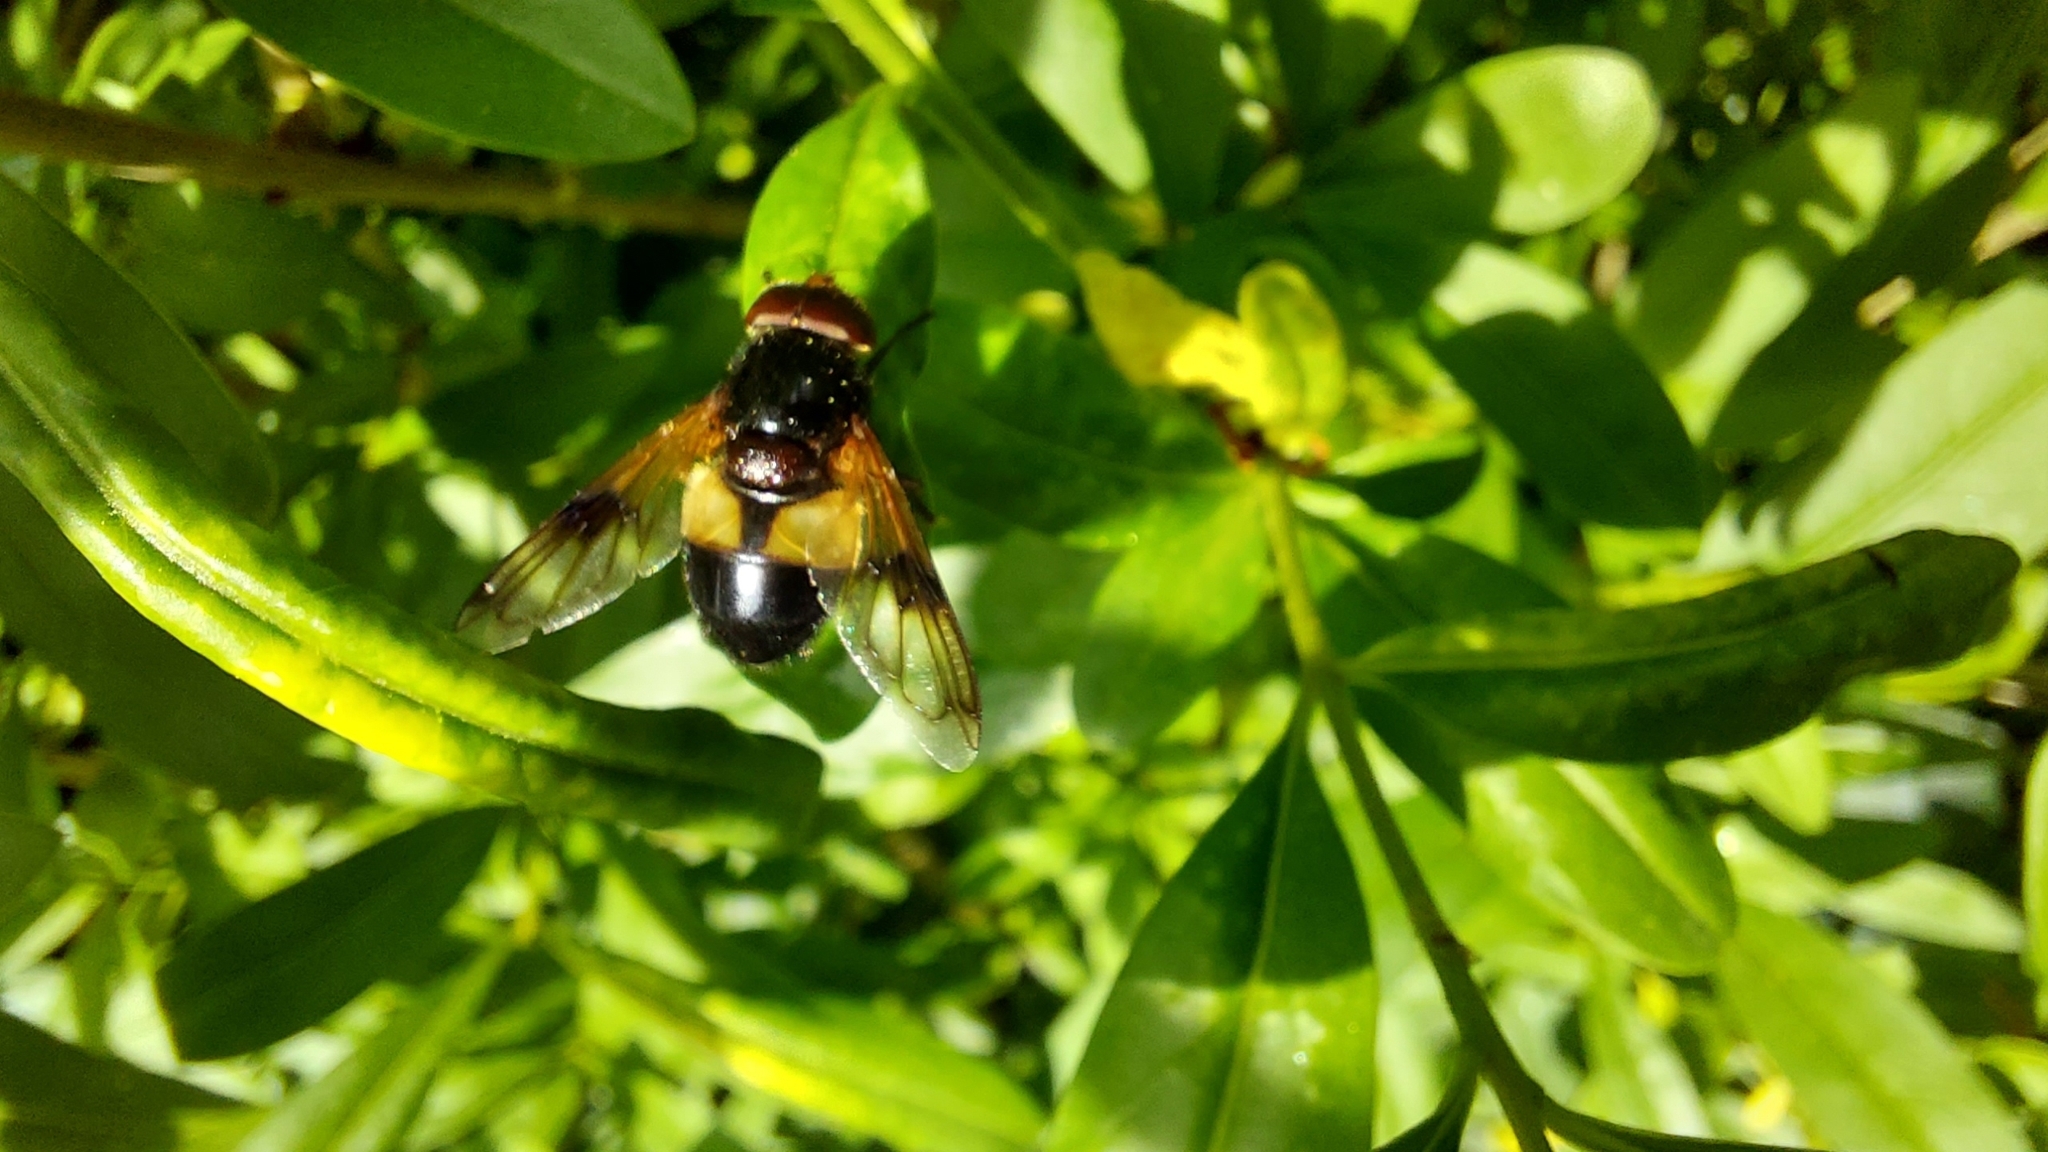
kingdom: Animalia
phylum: Arthropoda
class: Insecta
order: Diptera
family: Syrphidae
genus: Volucella
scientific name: Volucella pellucens
